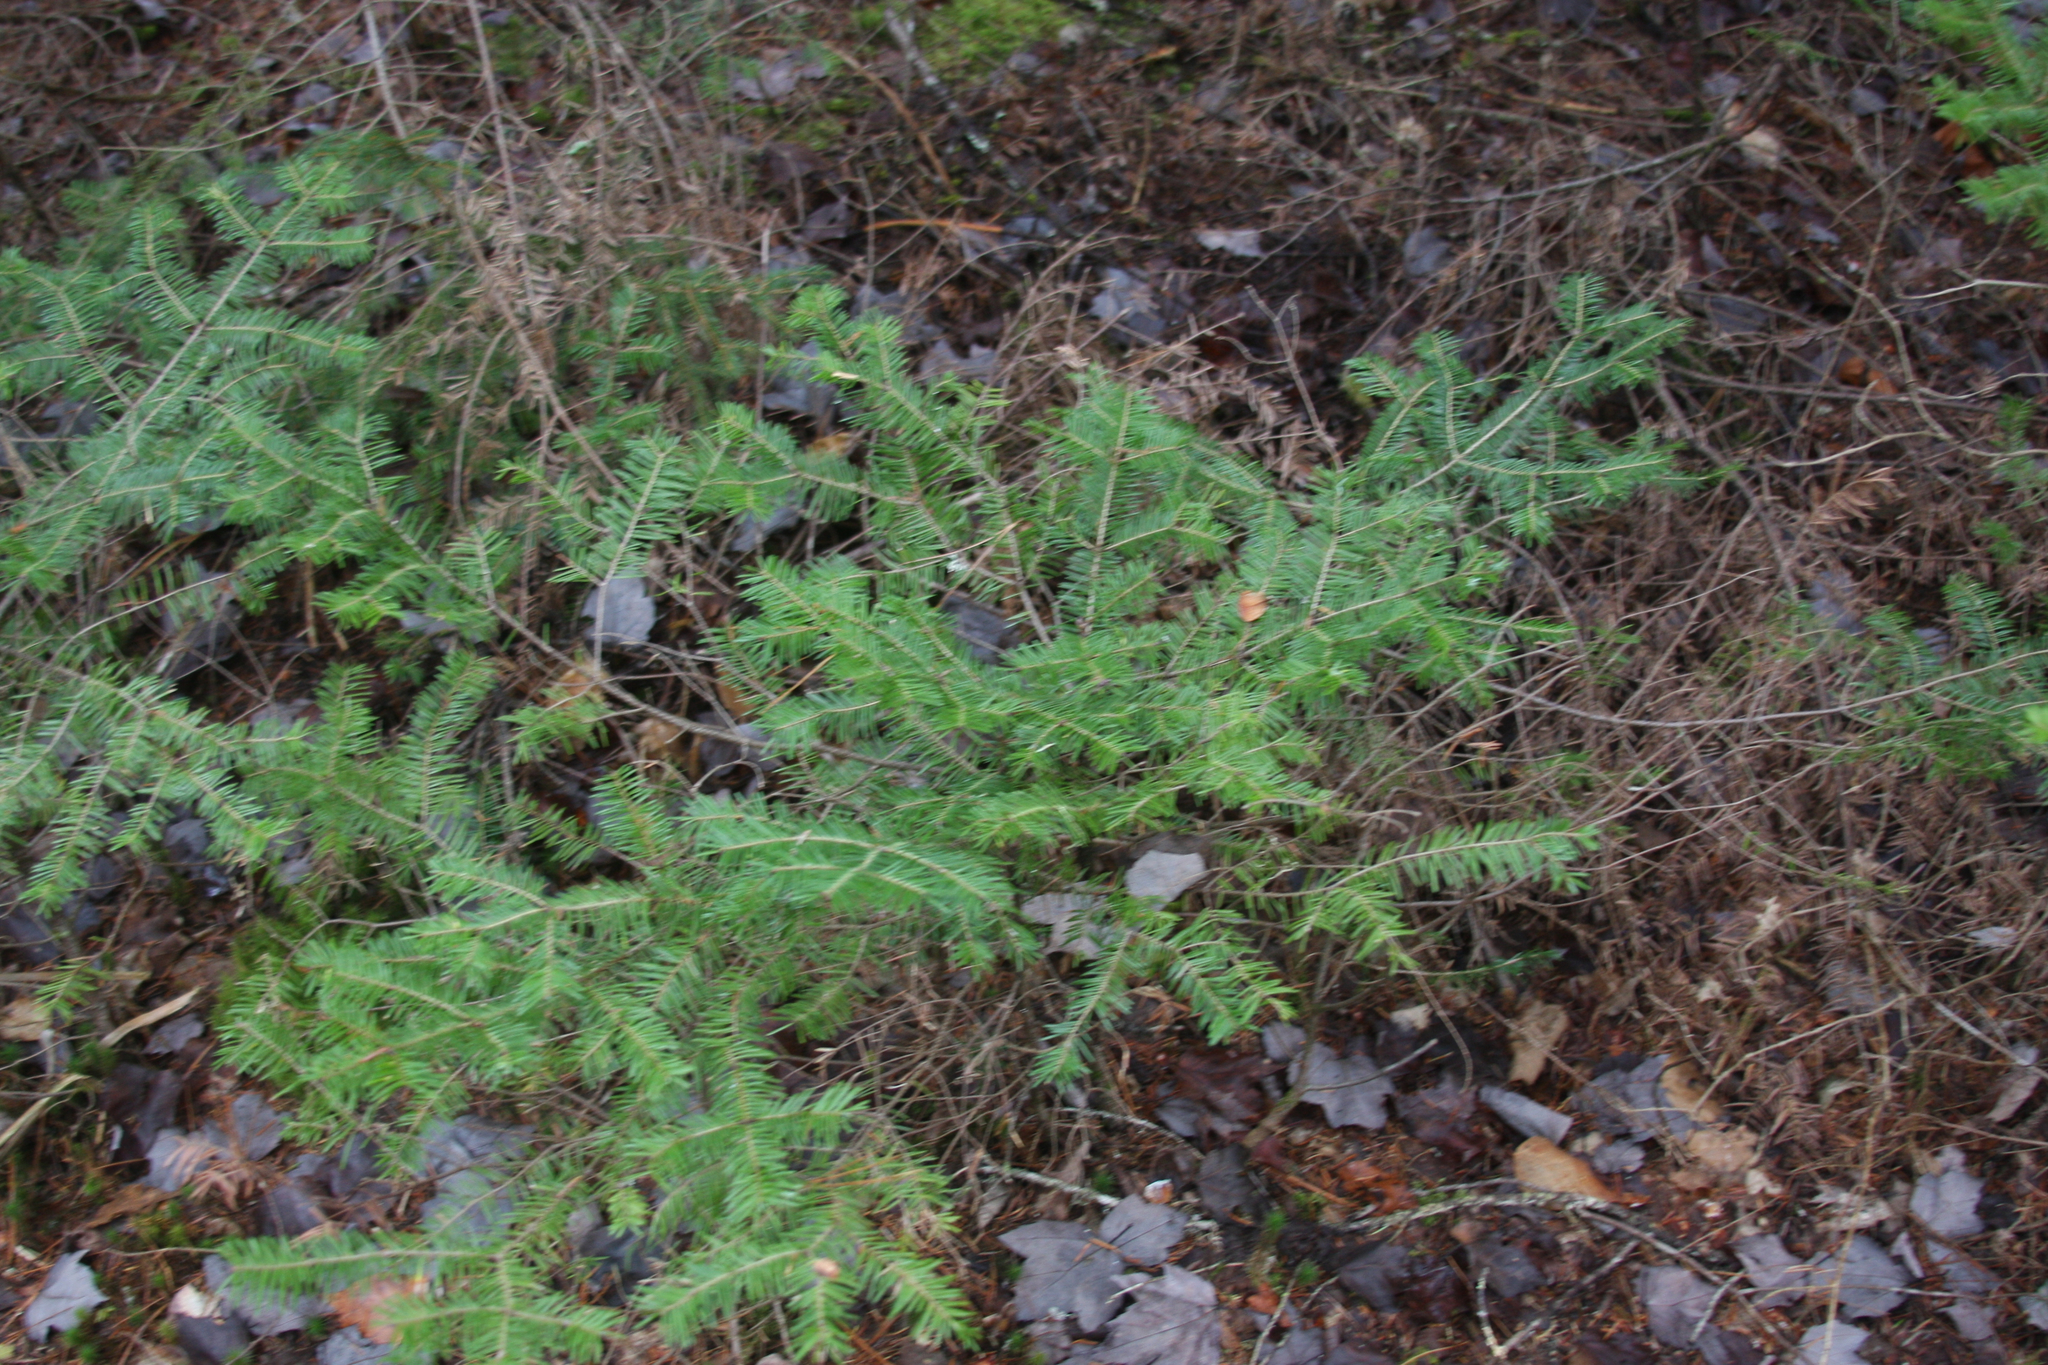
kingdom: Plantae
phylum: Tracheophyta
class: Pinopsida
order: Pinales
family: Pinaceae
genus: Abies
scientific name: Abies balsamea
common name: Balsam fir
